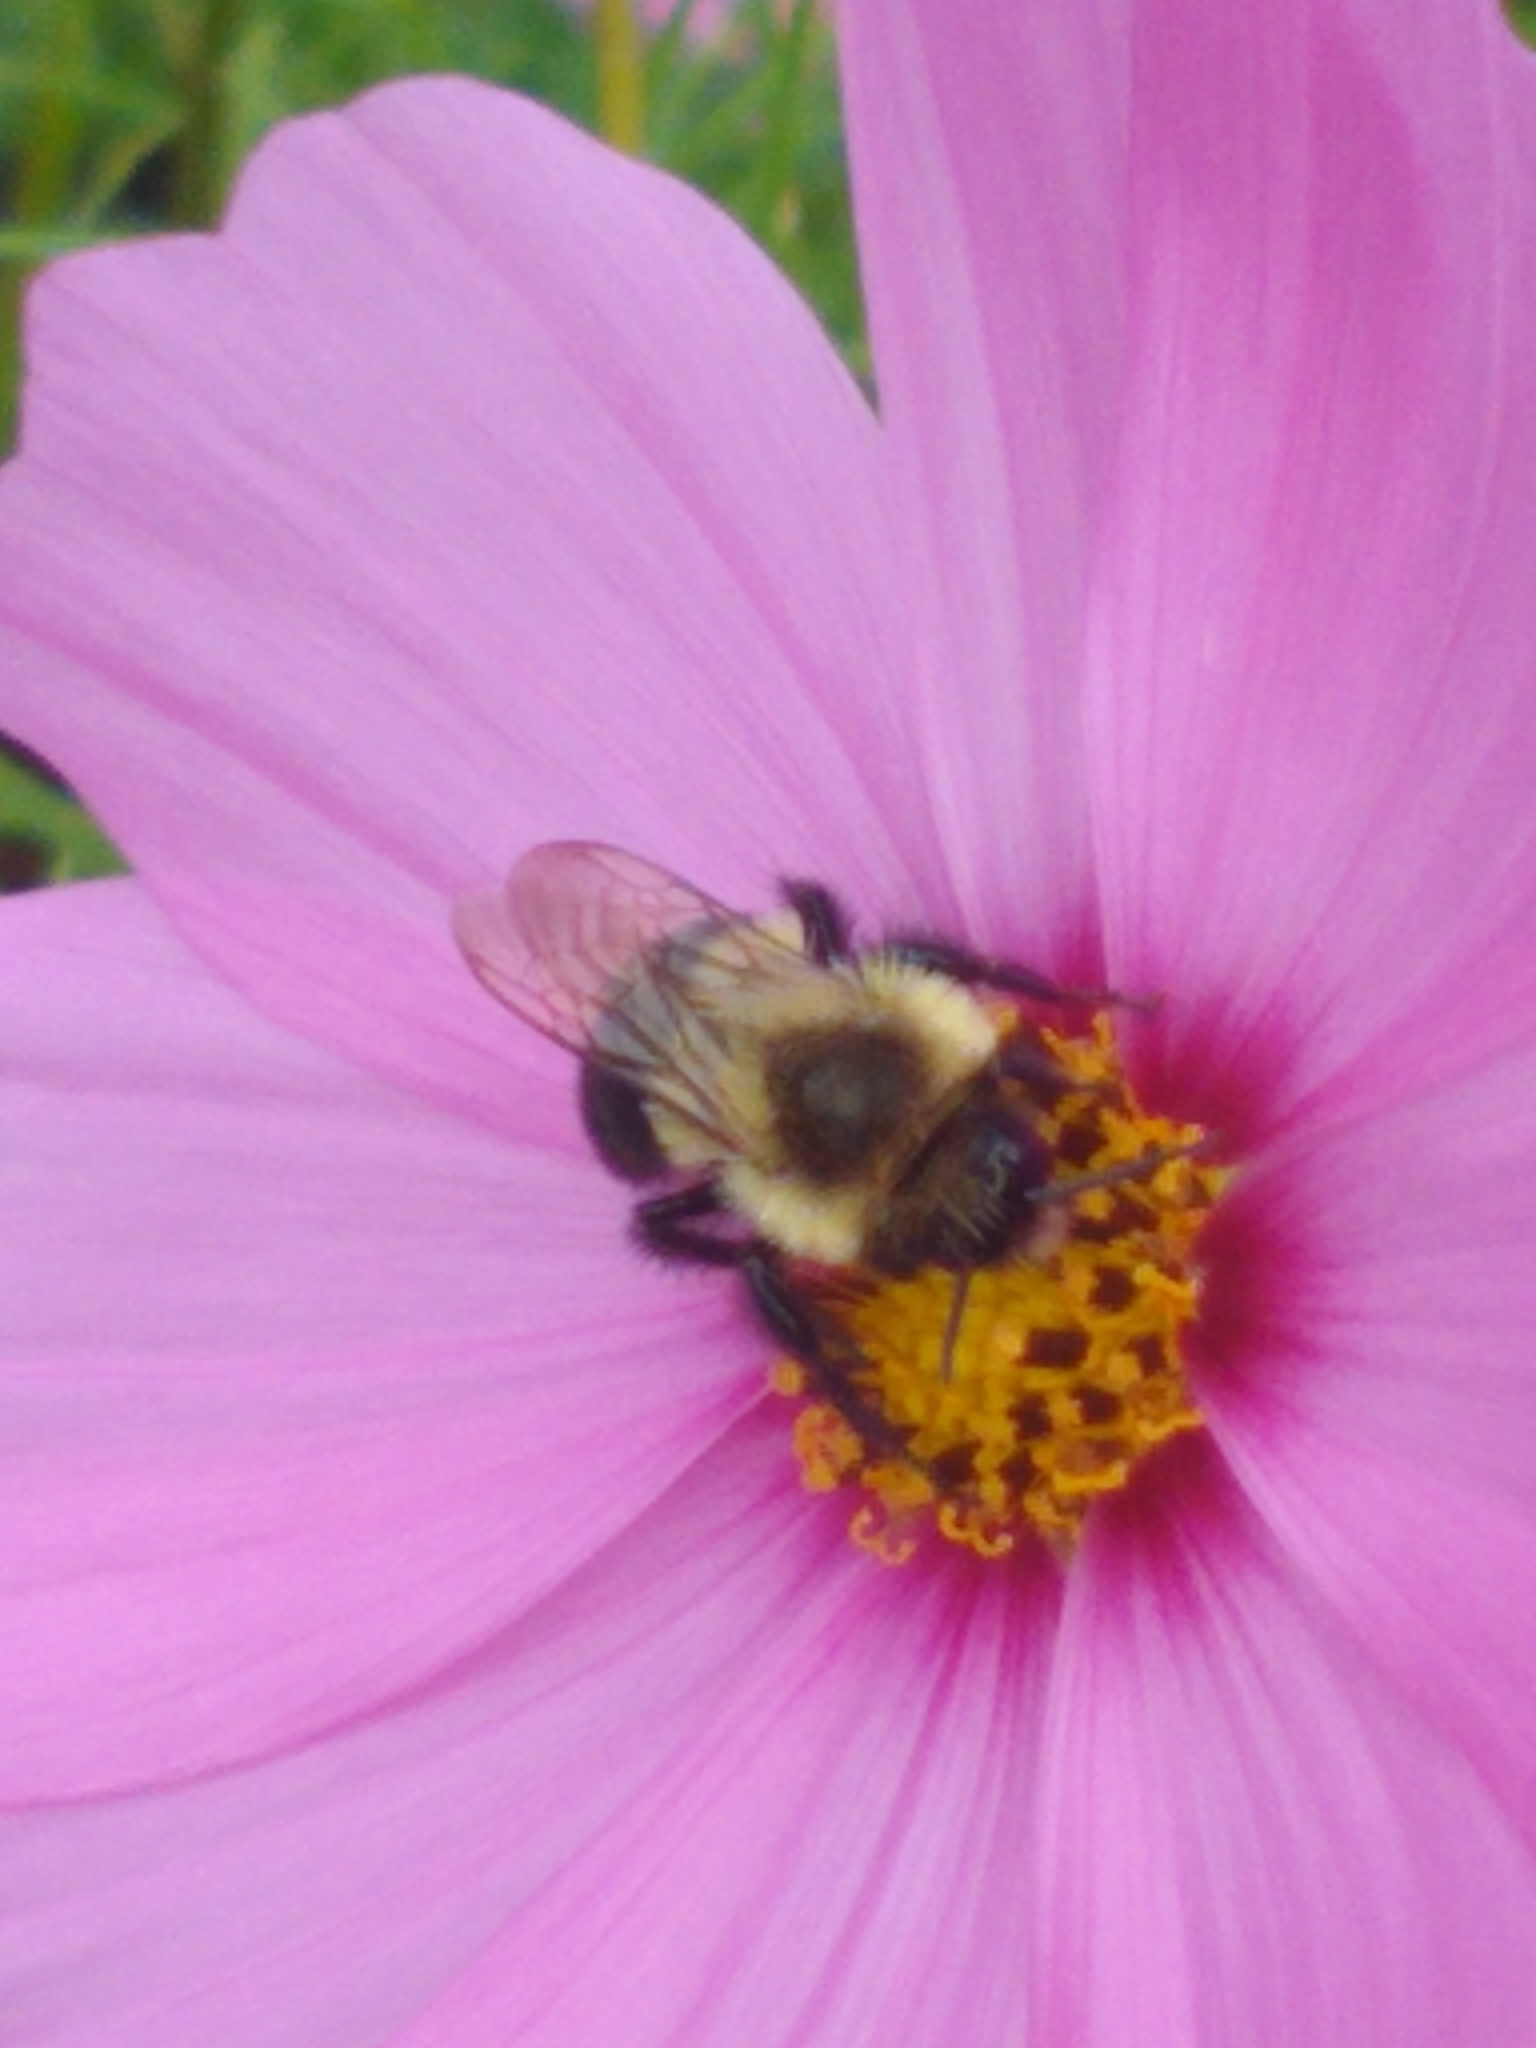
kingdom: Animalia
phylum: Arthropoda
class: Insecta
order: Hymenoptera
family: Apidae
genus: Bombus
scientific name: Bombus impatiens
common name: Common eastern bumble bee
